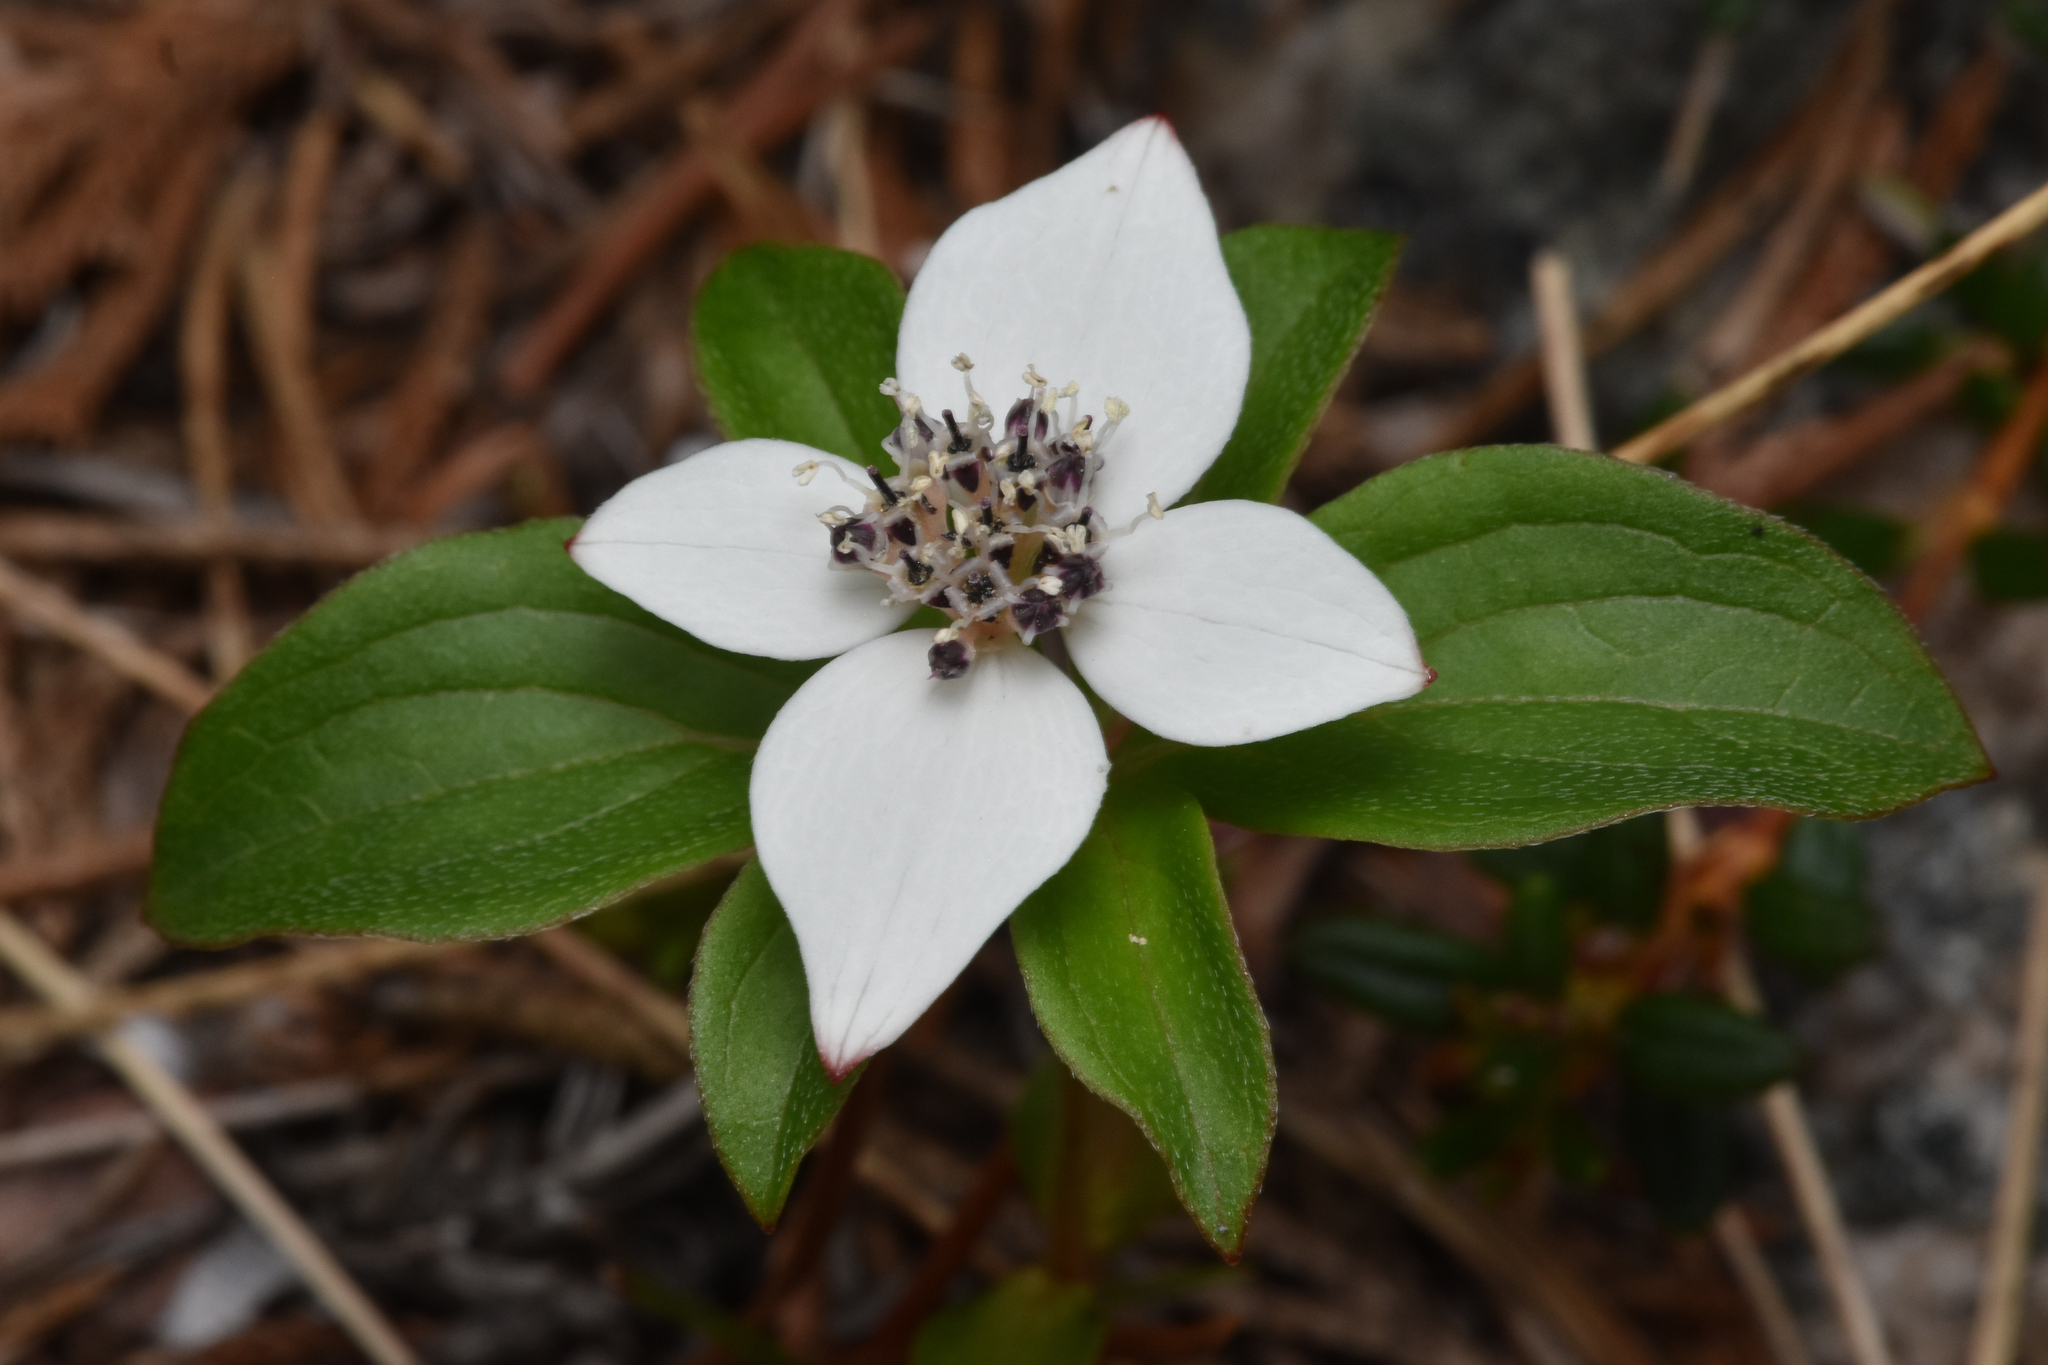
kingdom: Plantae
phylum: Tracheophyta
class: Magnoliopsida
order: Cornales
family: Cornaceae
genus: Cornus
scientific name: Cornus unalaschkensis
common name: Alaska bunchberry
